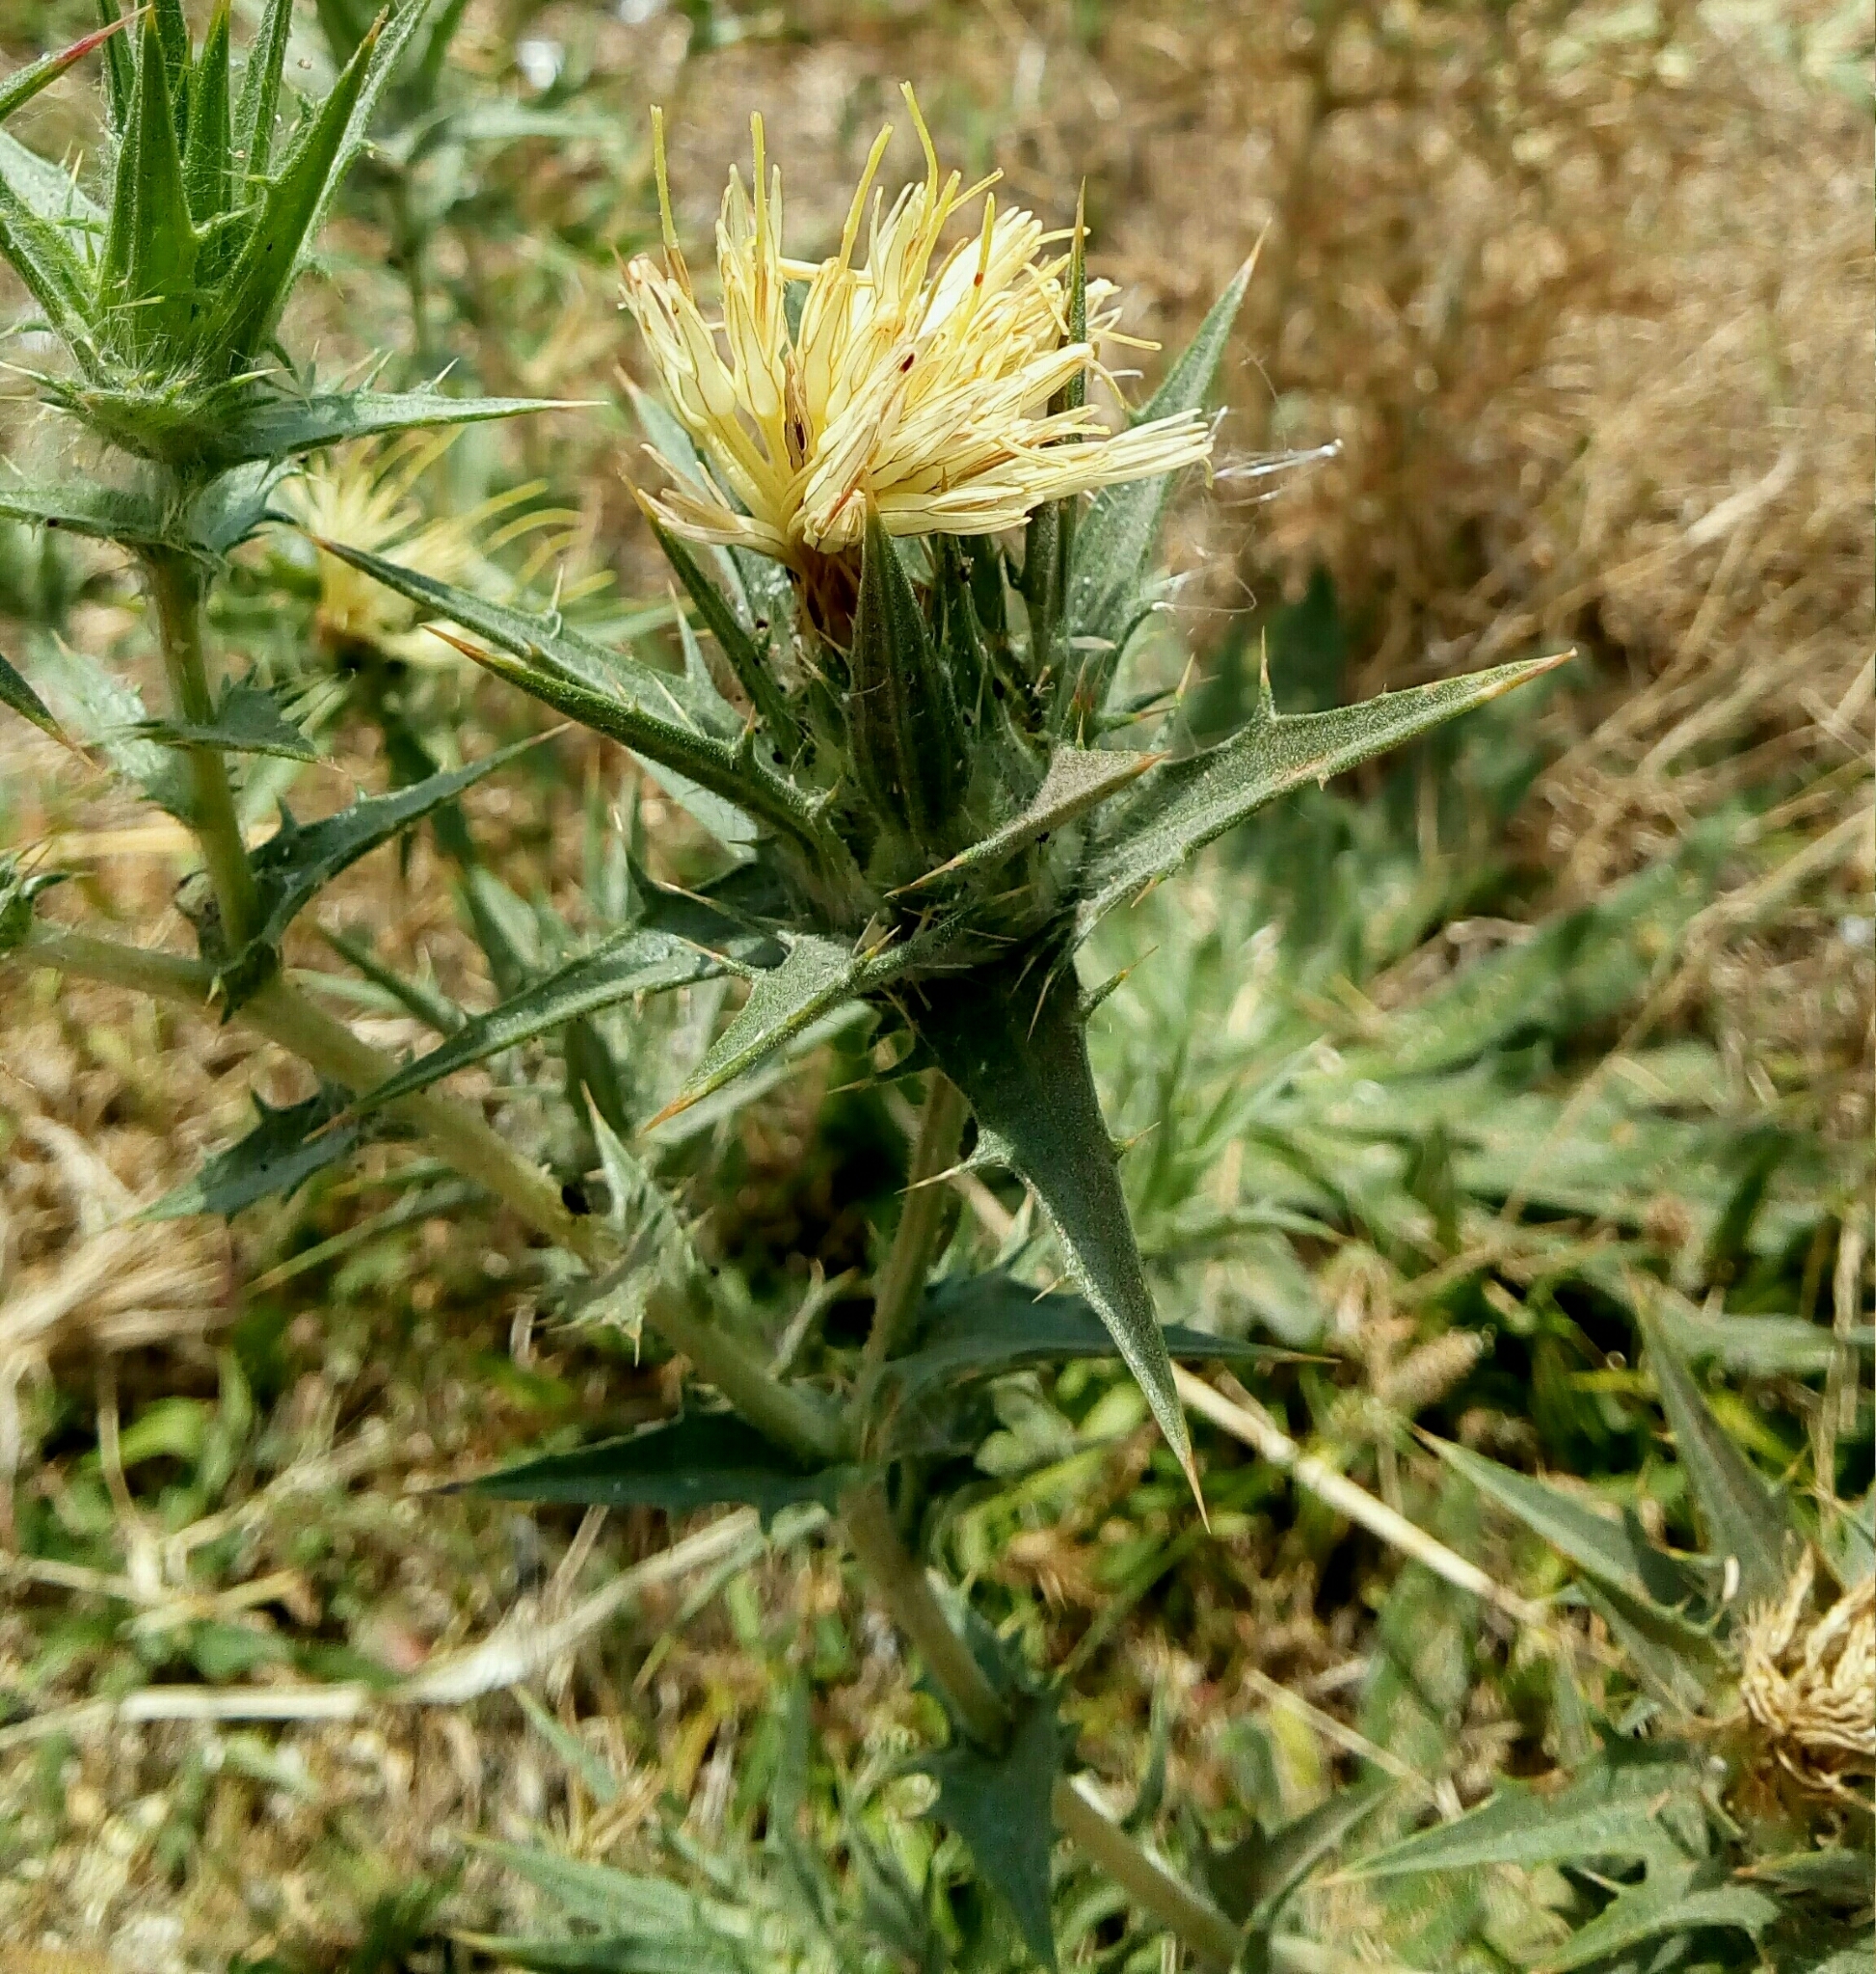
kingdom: Plantae
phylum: Tracheophyta
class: Magnoliopsida
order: Asterales
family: Asteraceae
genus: Carthamus
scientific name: Carthamus lanatus
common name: Downy safflower
